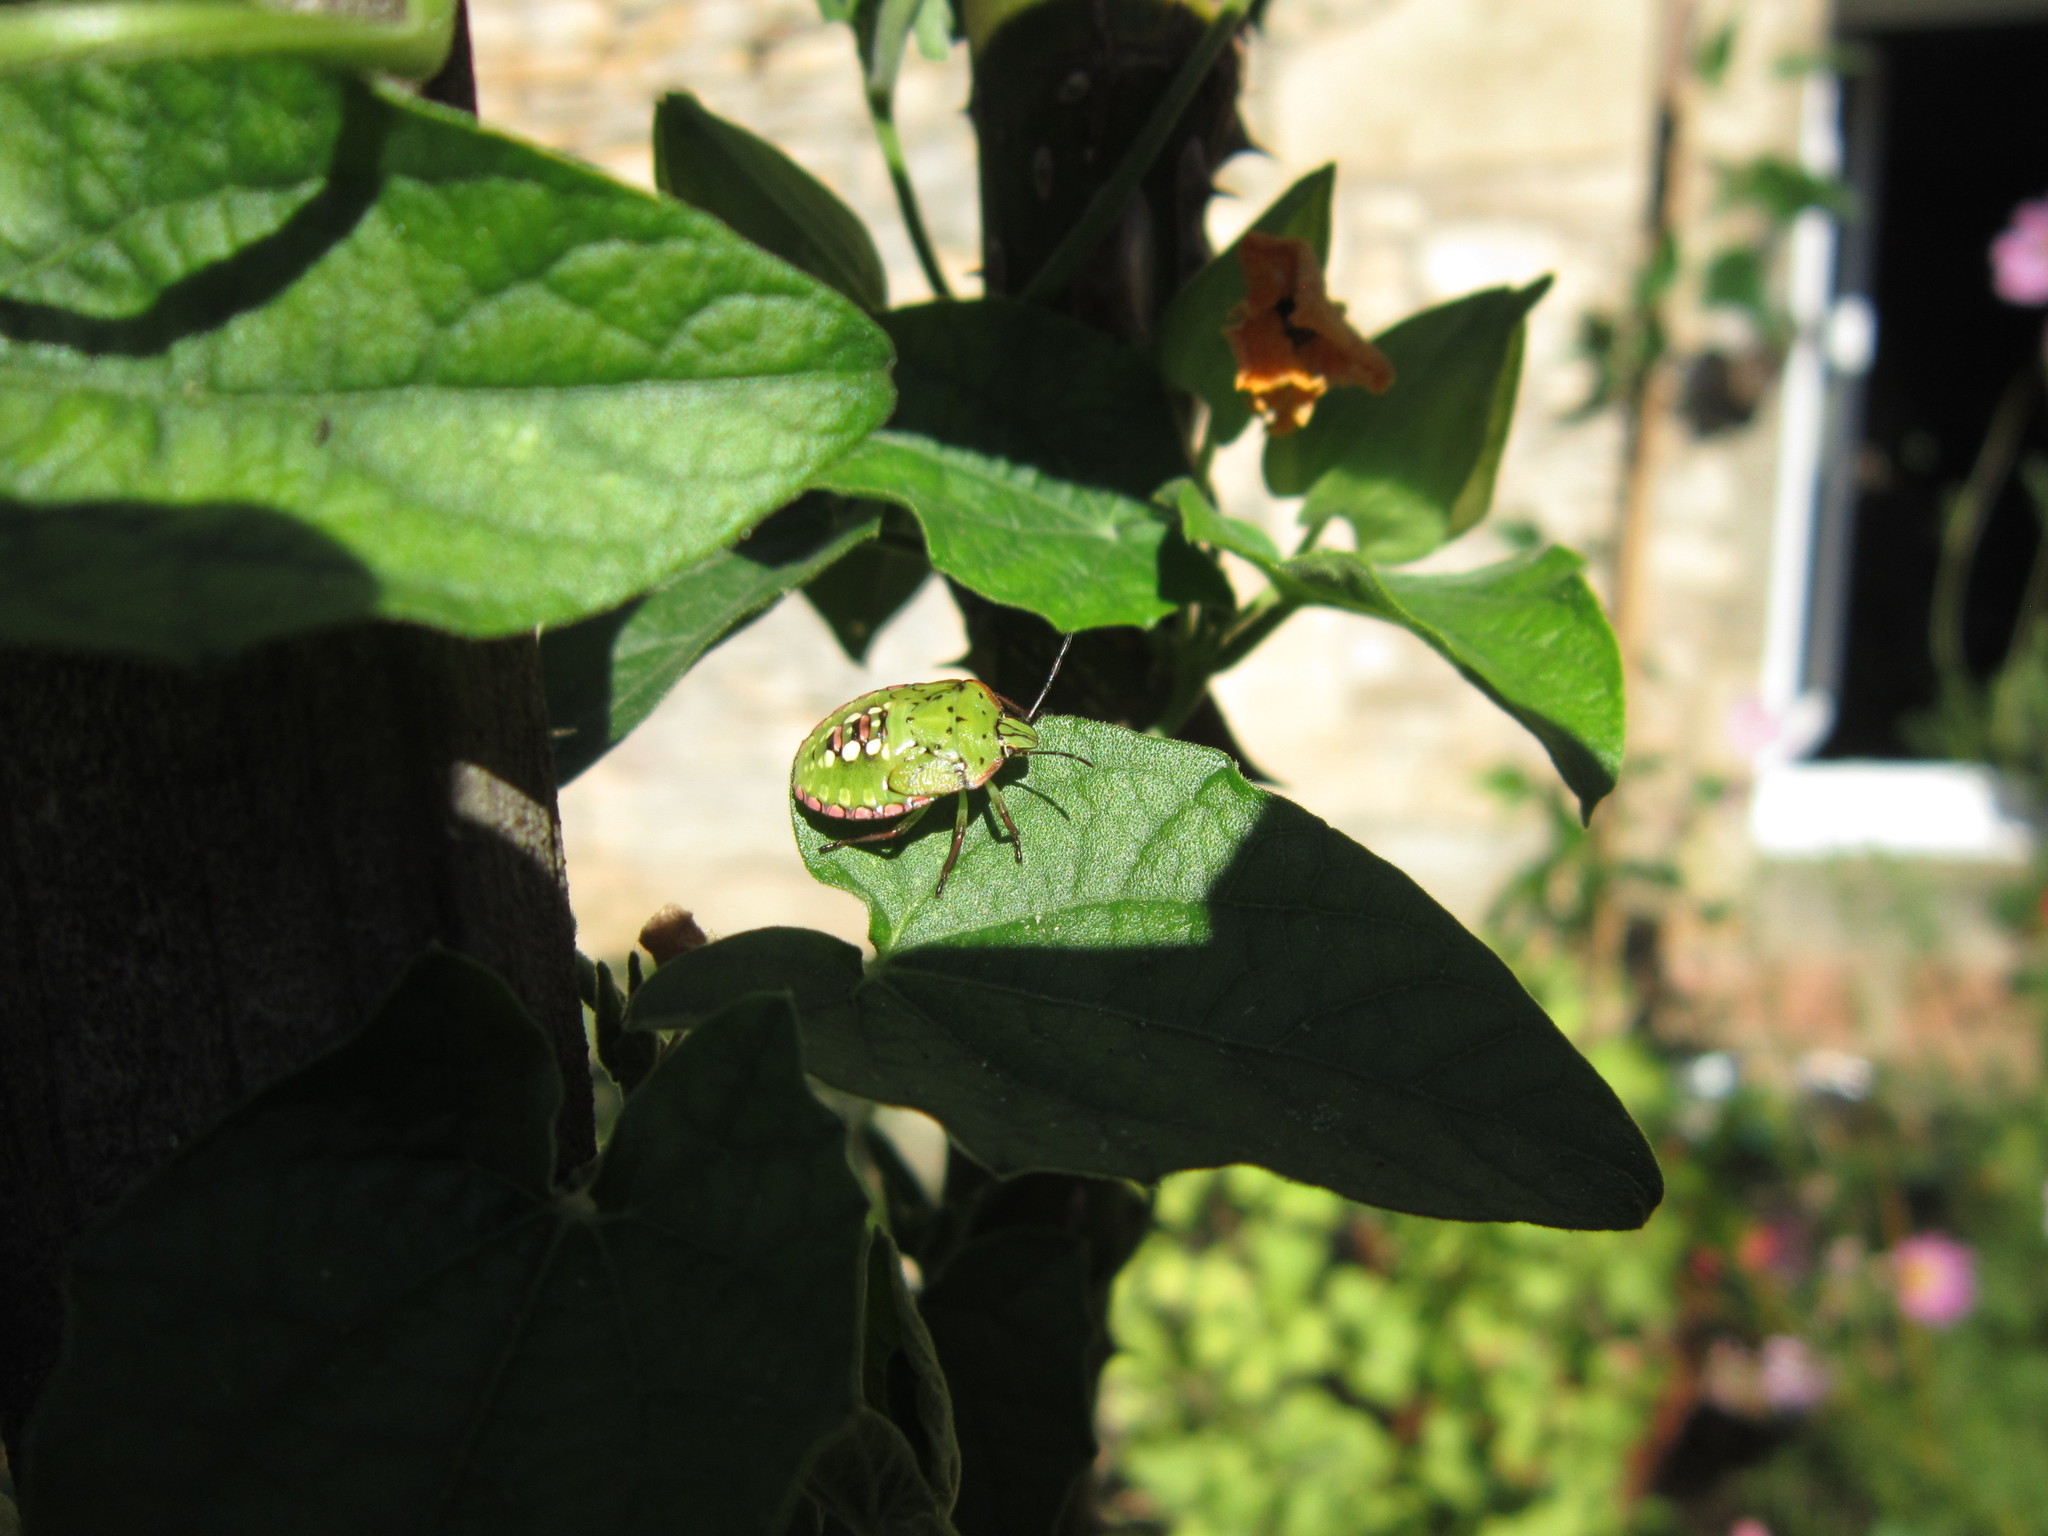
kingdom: Animalia
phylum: Arthropoda
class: Insecta
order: Hemiptera
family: Pentatomidae
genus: Nezara
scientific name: Nezara viridula
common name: Southern green stink bug
